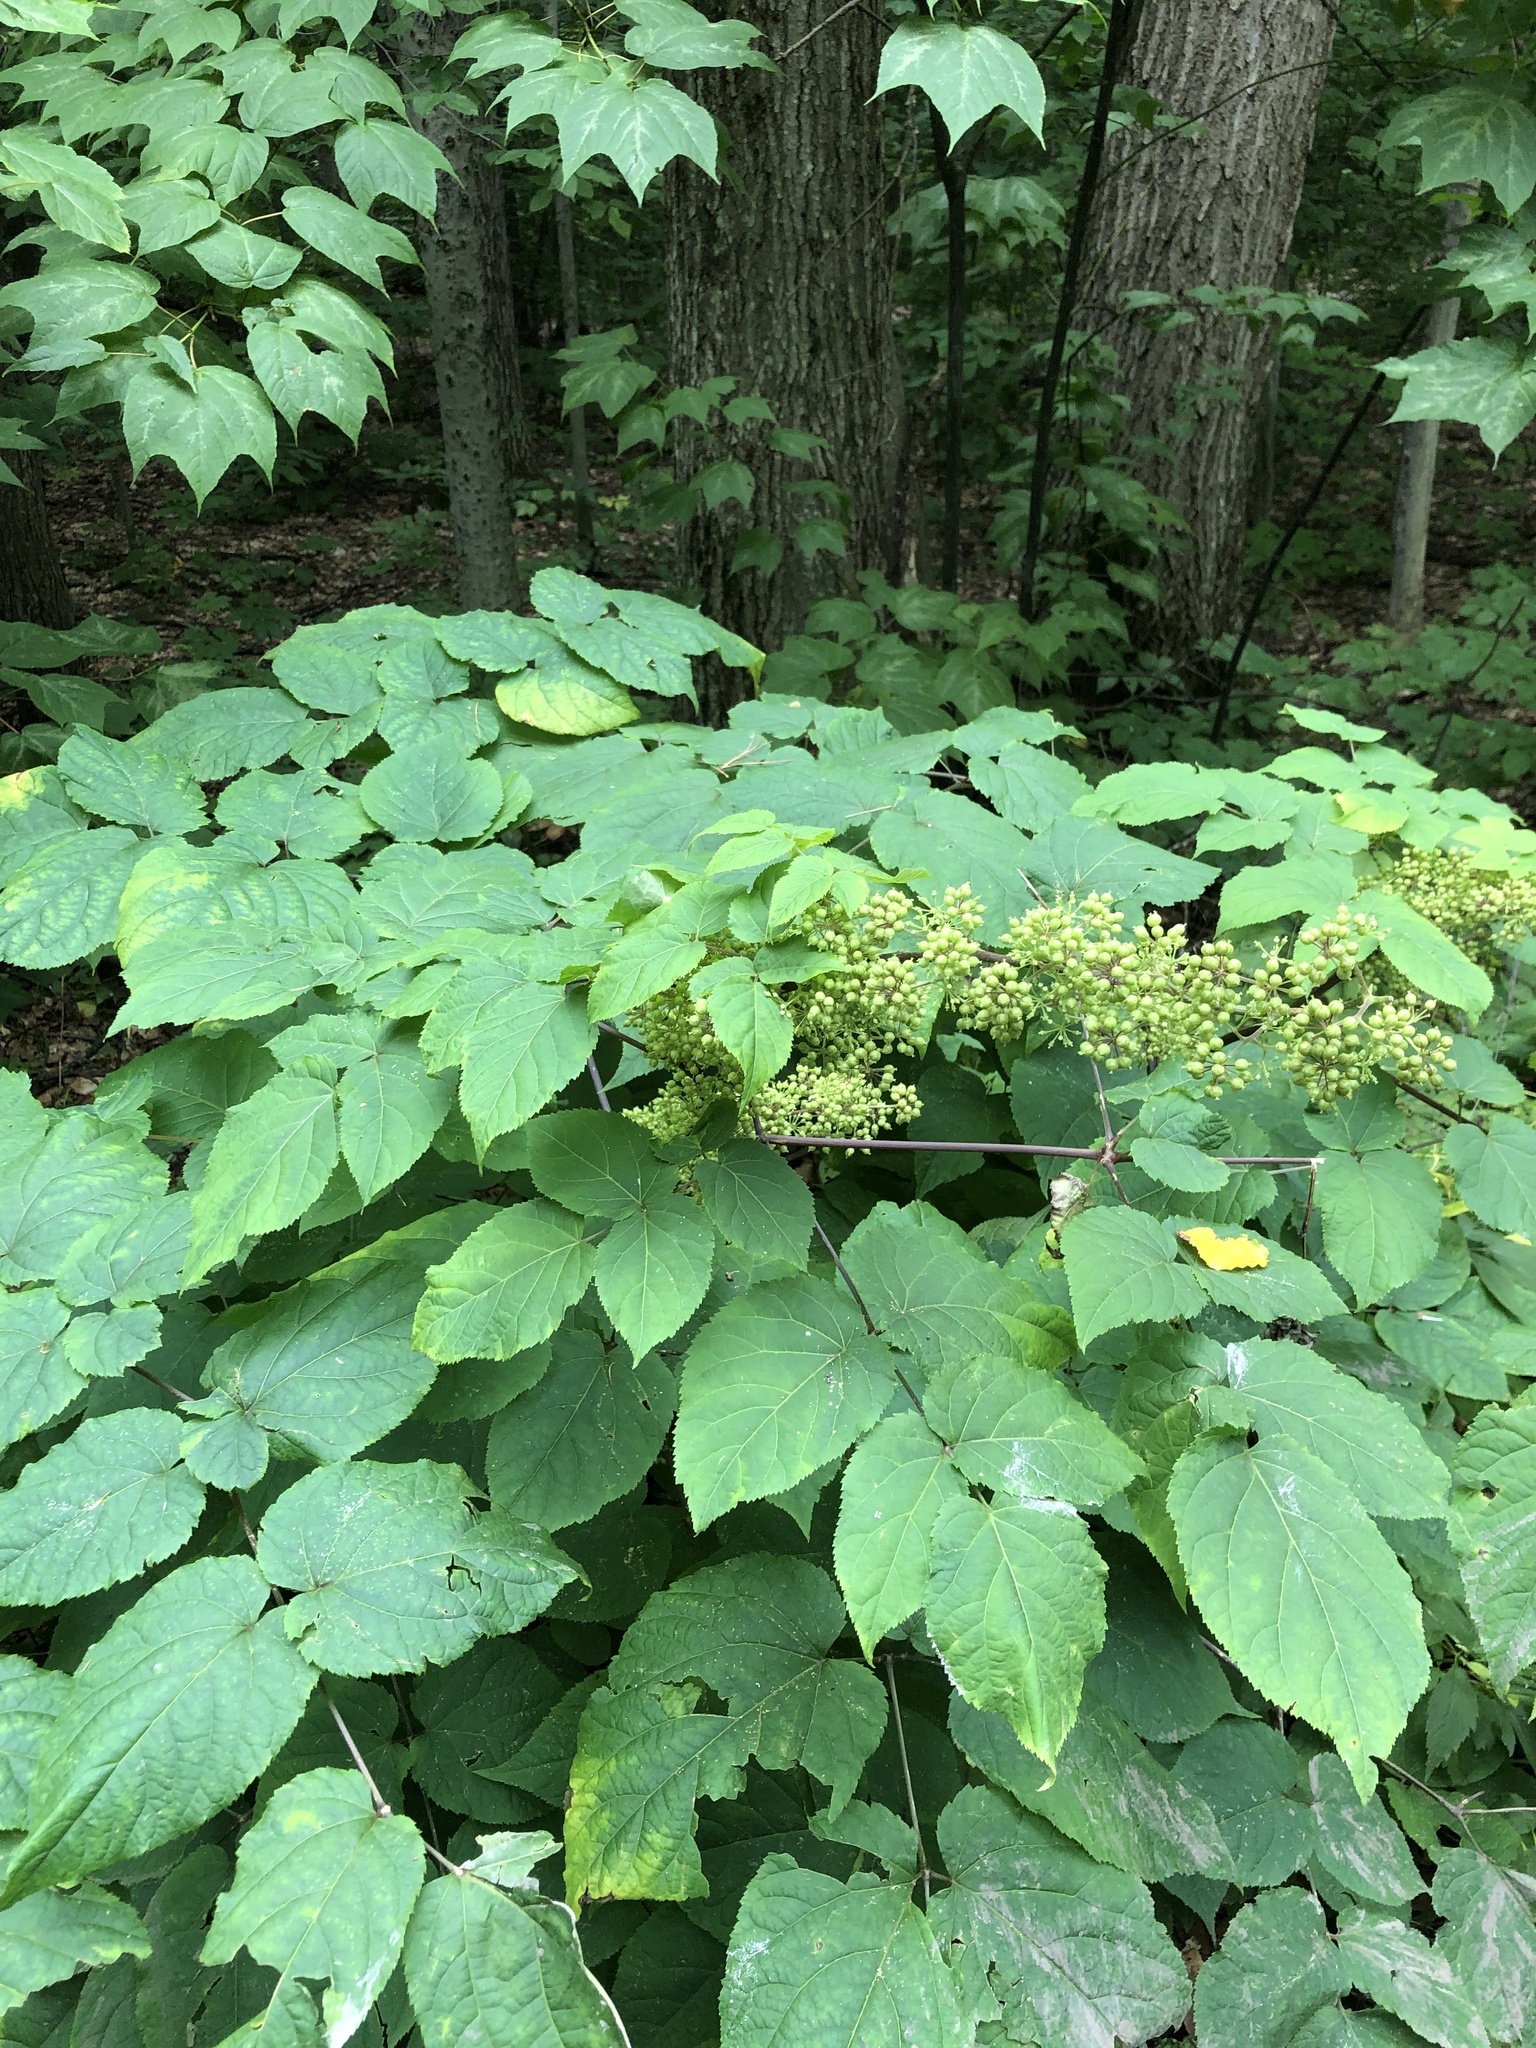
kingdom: Plantae
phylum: Tracheophyta
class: Magnoliopsida
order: Apiales
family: Araliaceae
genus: Aralia
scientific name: Aralia racemosa
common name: American-spikenard
